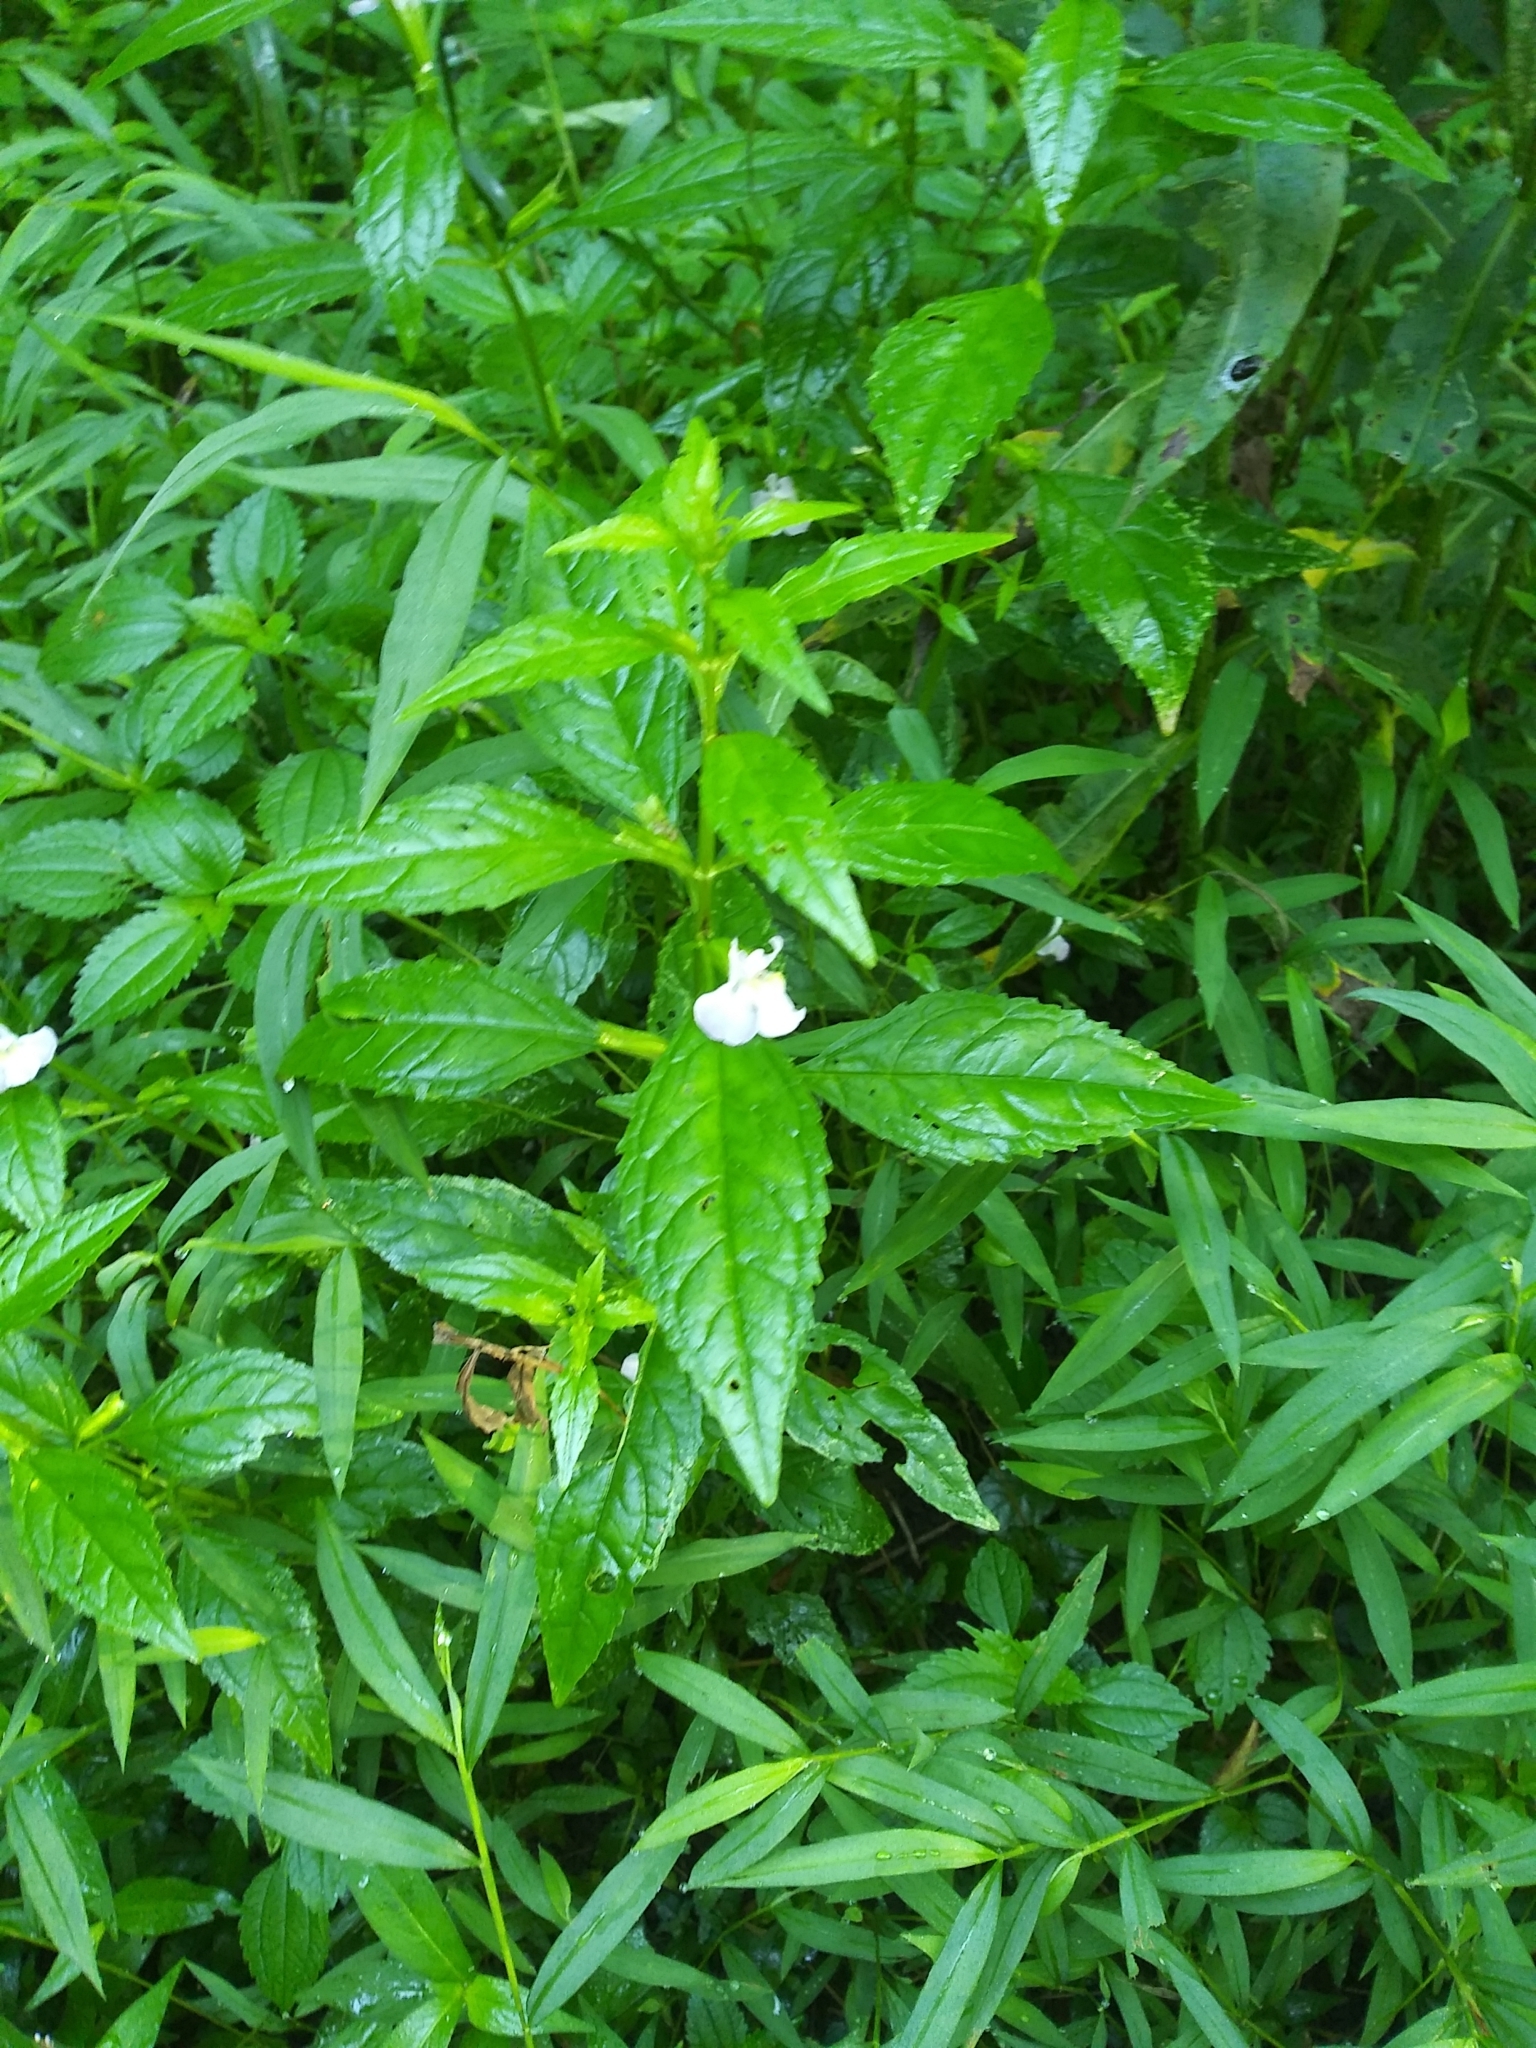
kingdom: Plantae
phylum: Tracheophyta
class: Magnoliopsida
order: Lamiales
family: Phrymaceae
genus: Mimulus
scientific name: Mimulus alatus
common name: Sharp-wing monkey-flower
